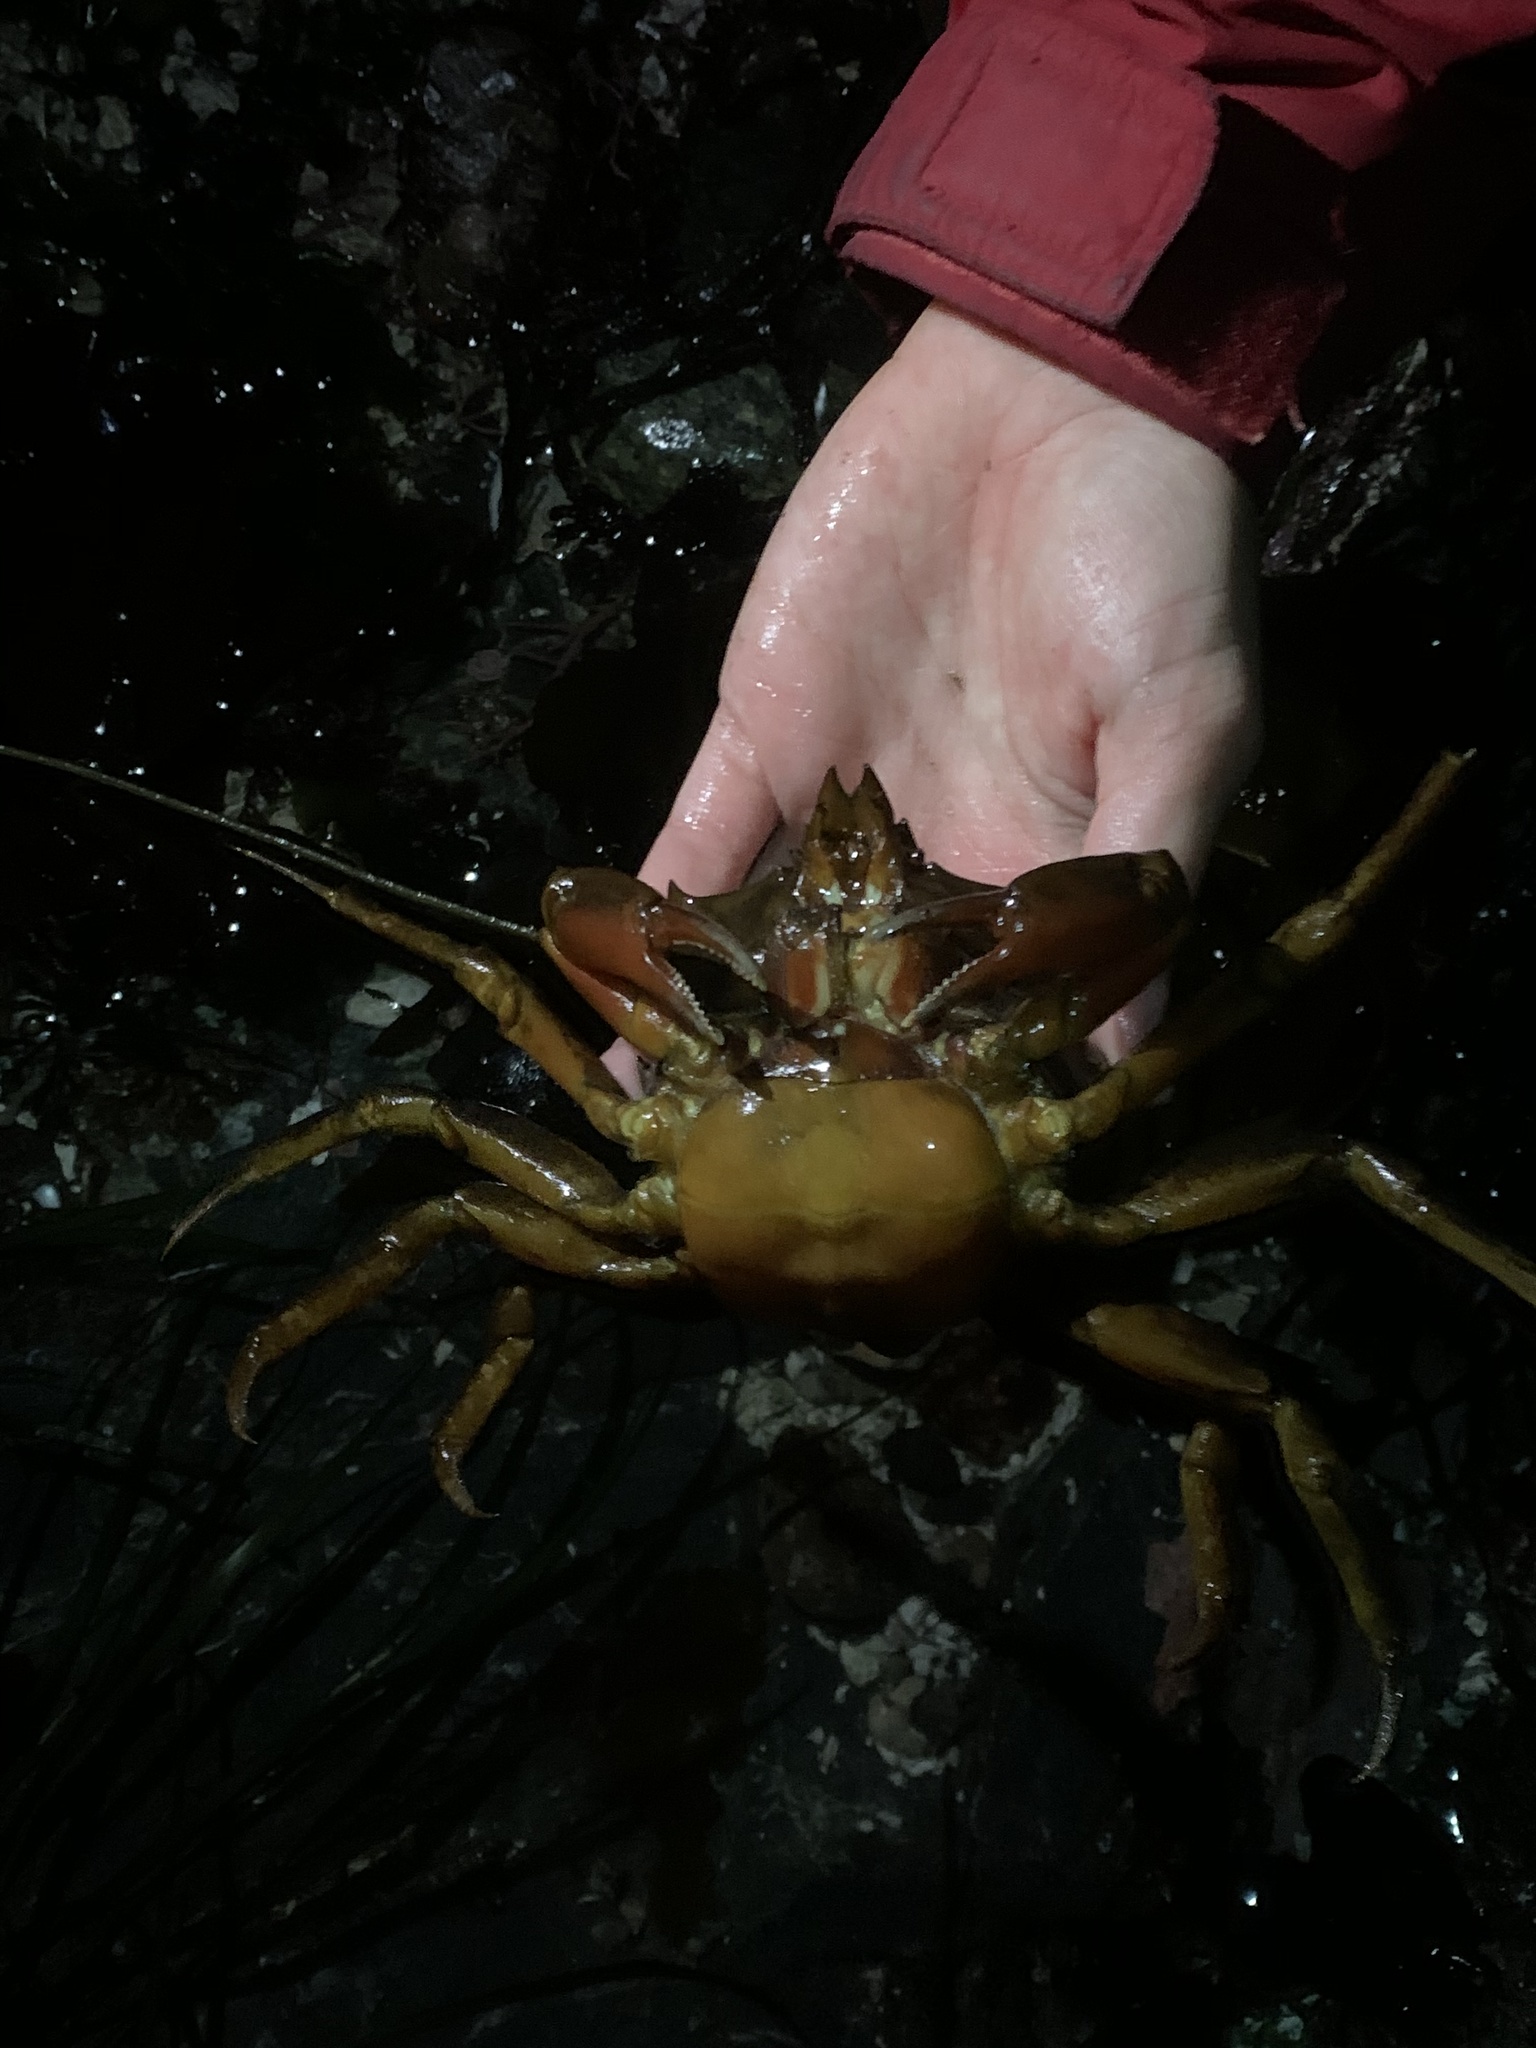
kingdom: Animalia
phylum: Arthropoda
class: Malacostraca
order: Decapoda
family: Epialtidae
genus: Pugettia
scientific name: Pugettia producta
